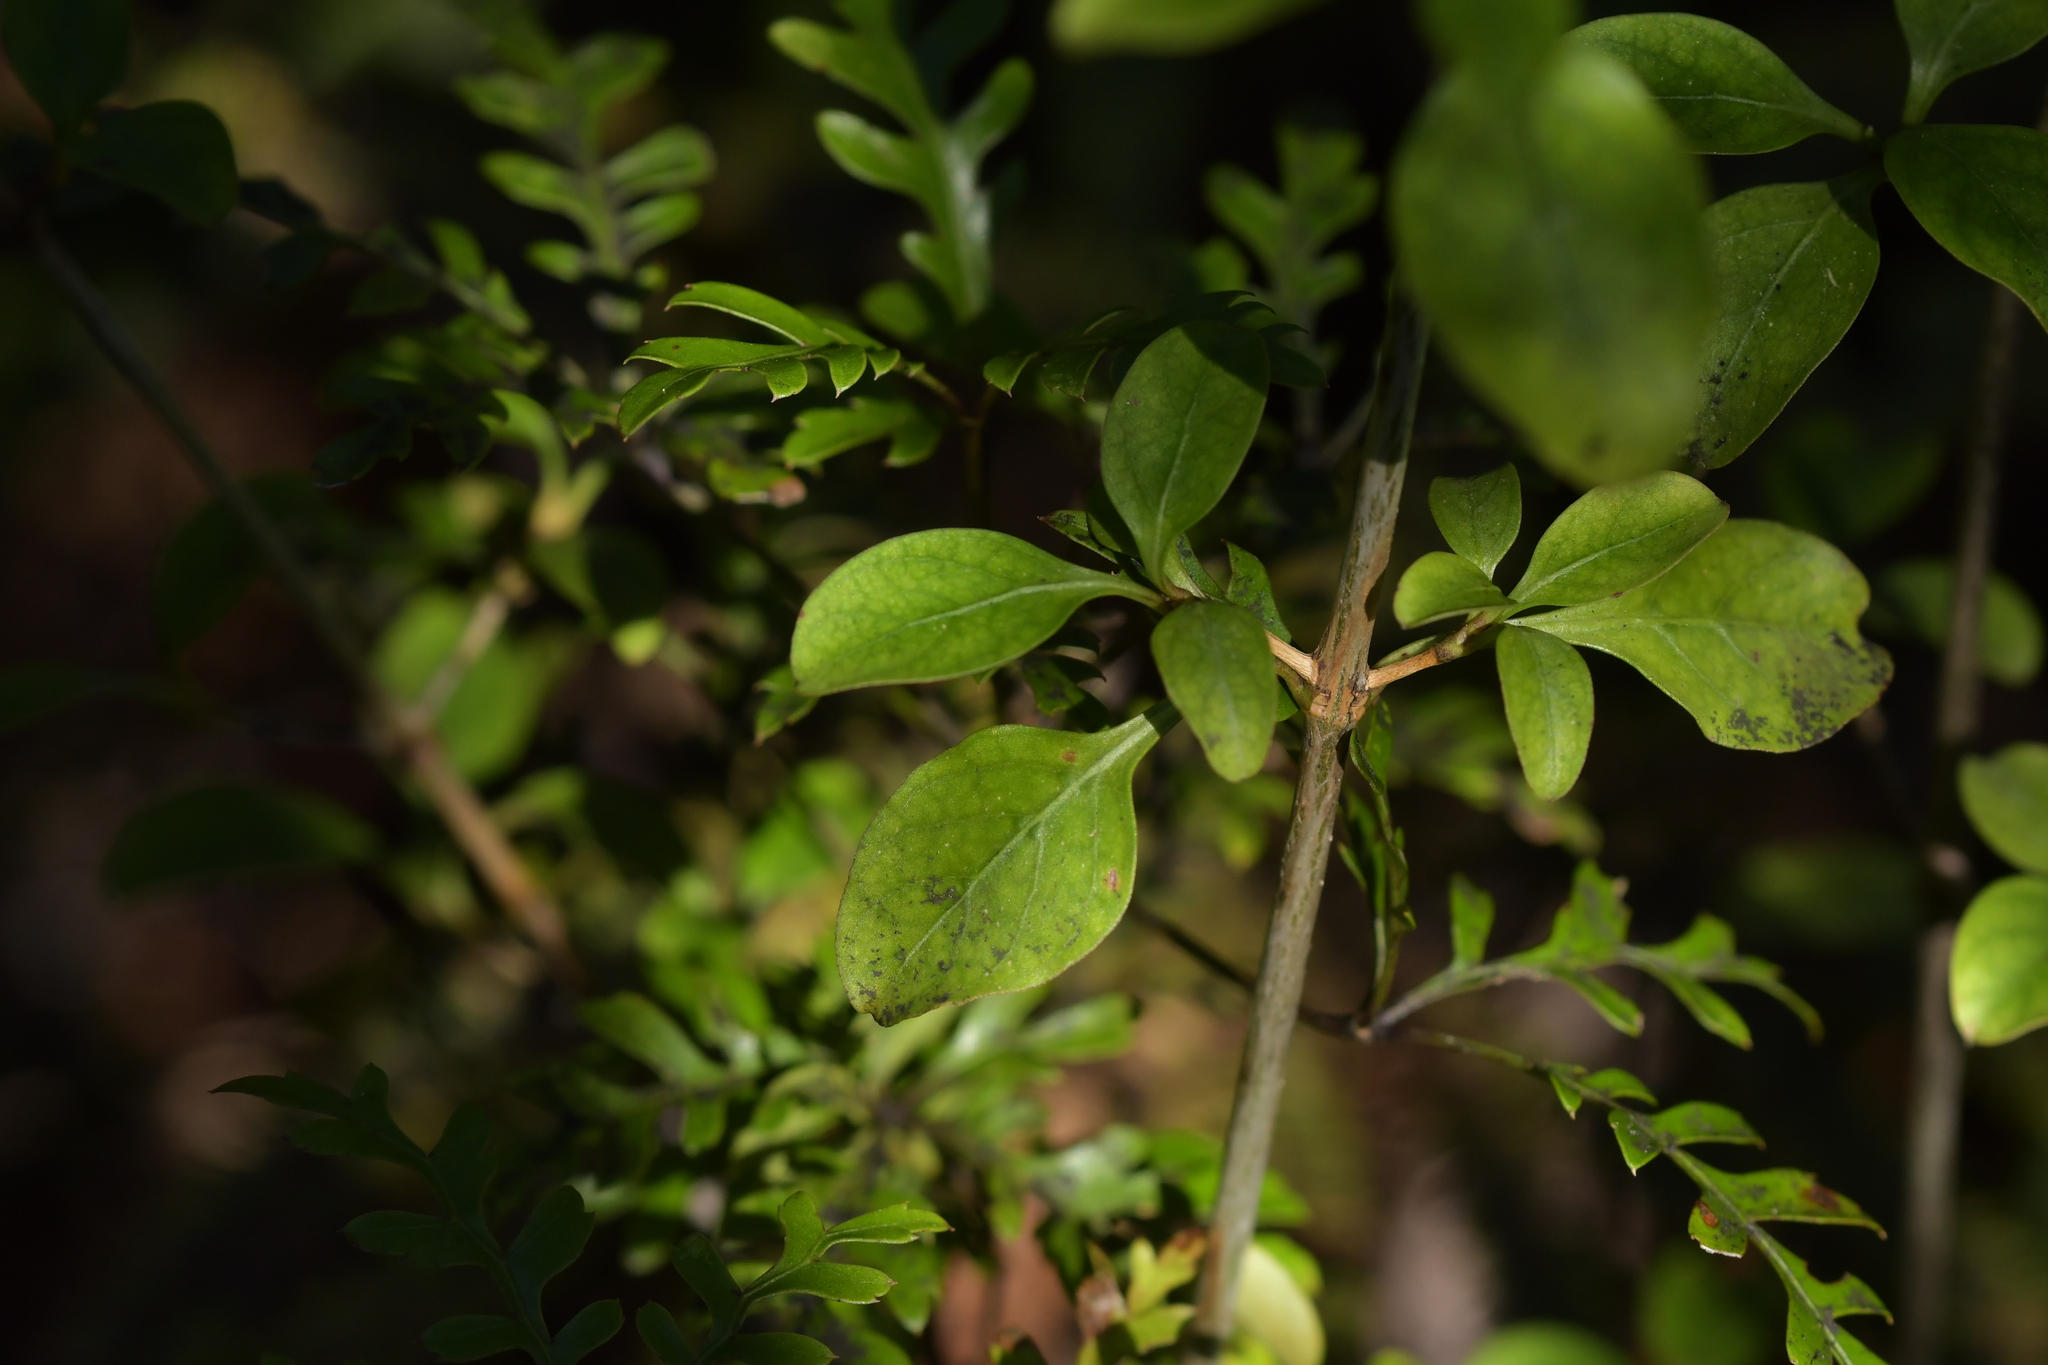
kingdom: Plantae
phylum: Tracheophyta
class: Magnoliopsida
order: Gentianales
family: Rubiaceae
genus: Coprosma
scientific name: Coprosma foetidissima
